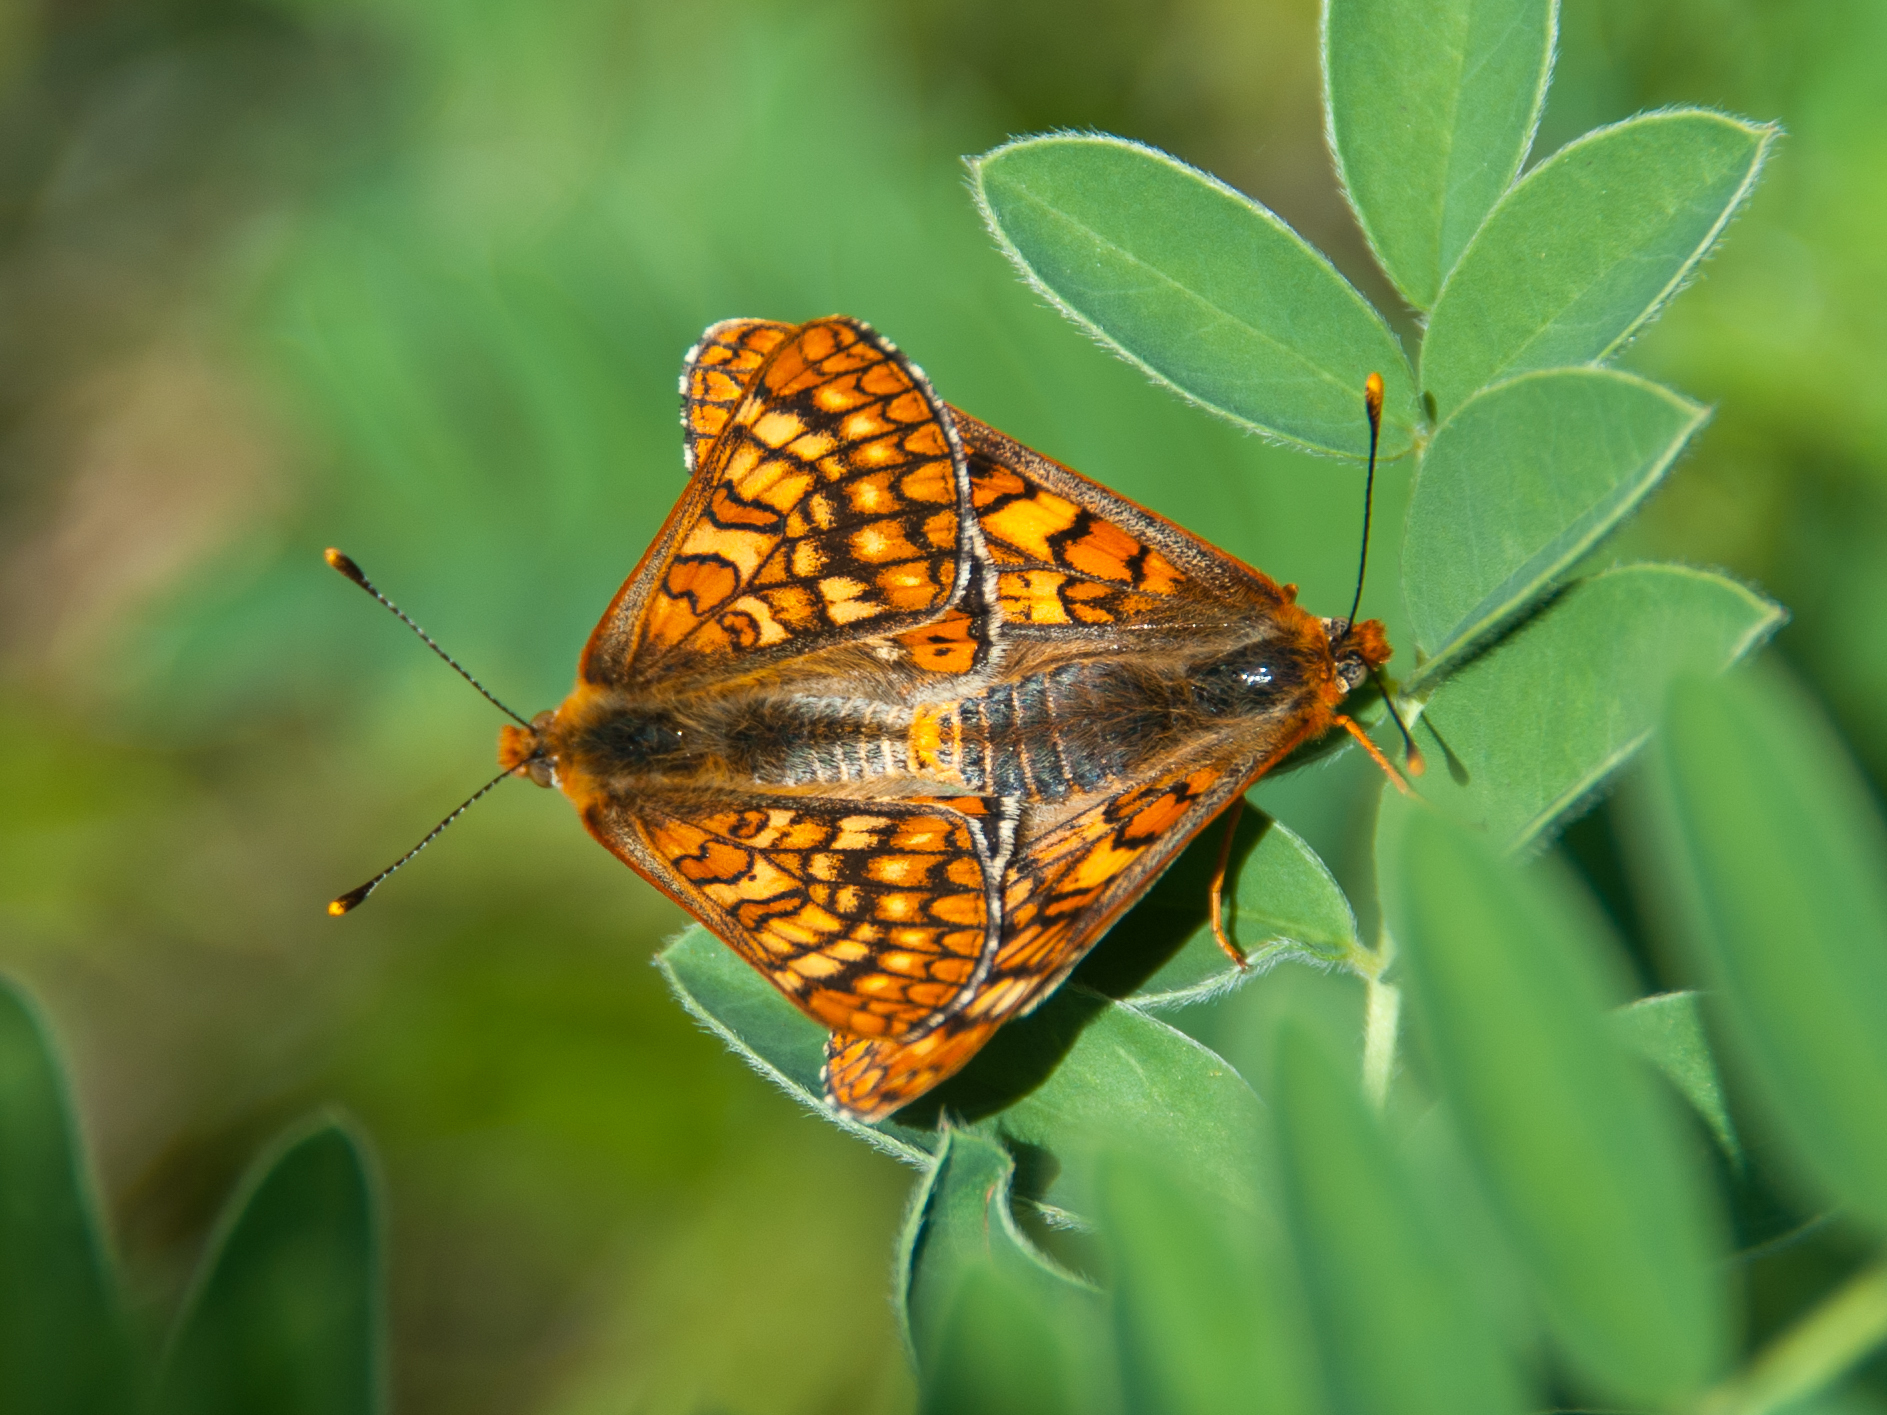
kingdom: Animalia
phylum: Arthropoda
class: Insecta
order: Lepidoptera
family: Nymphalidae
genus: Euphydryas
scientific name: Euphydryas aurinia
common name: Marsh fritillary
